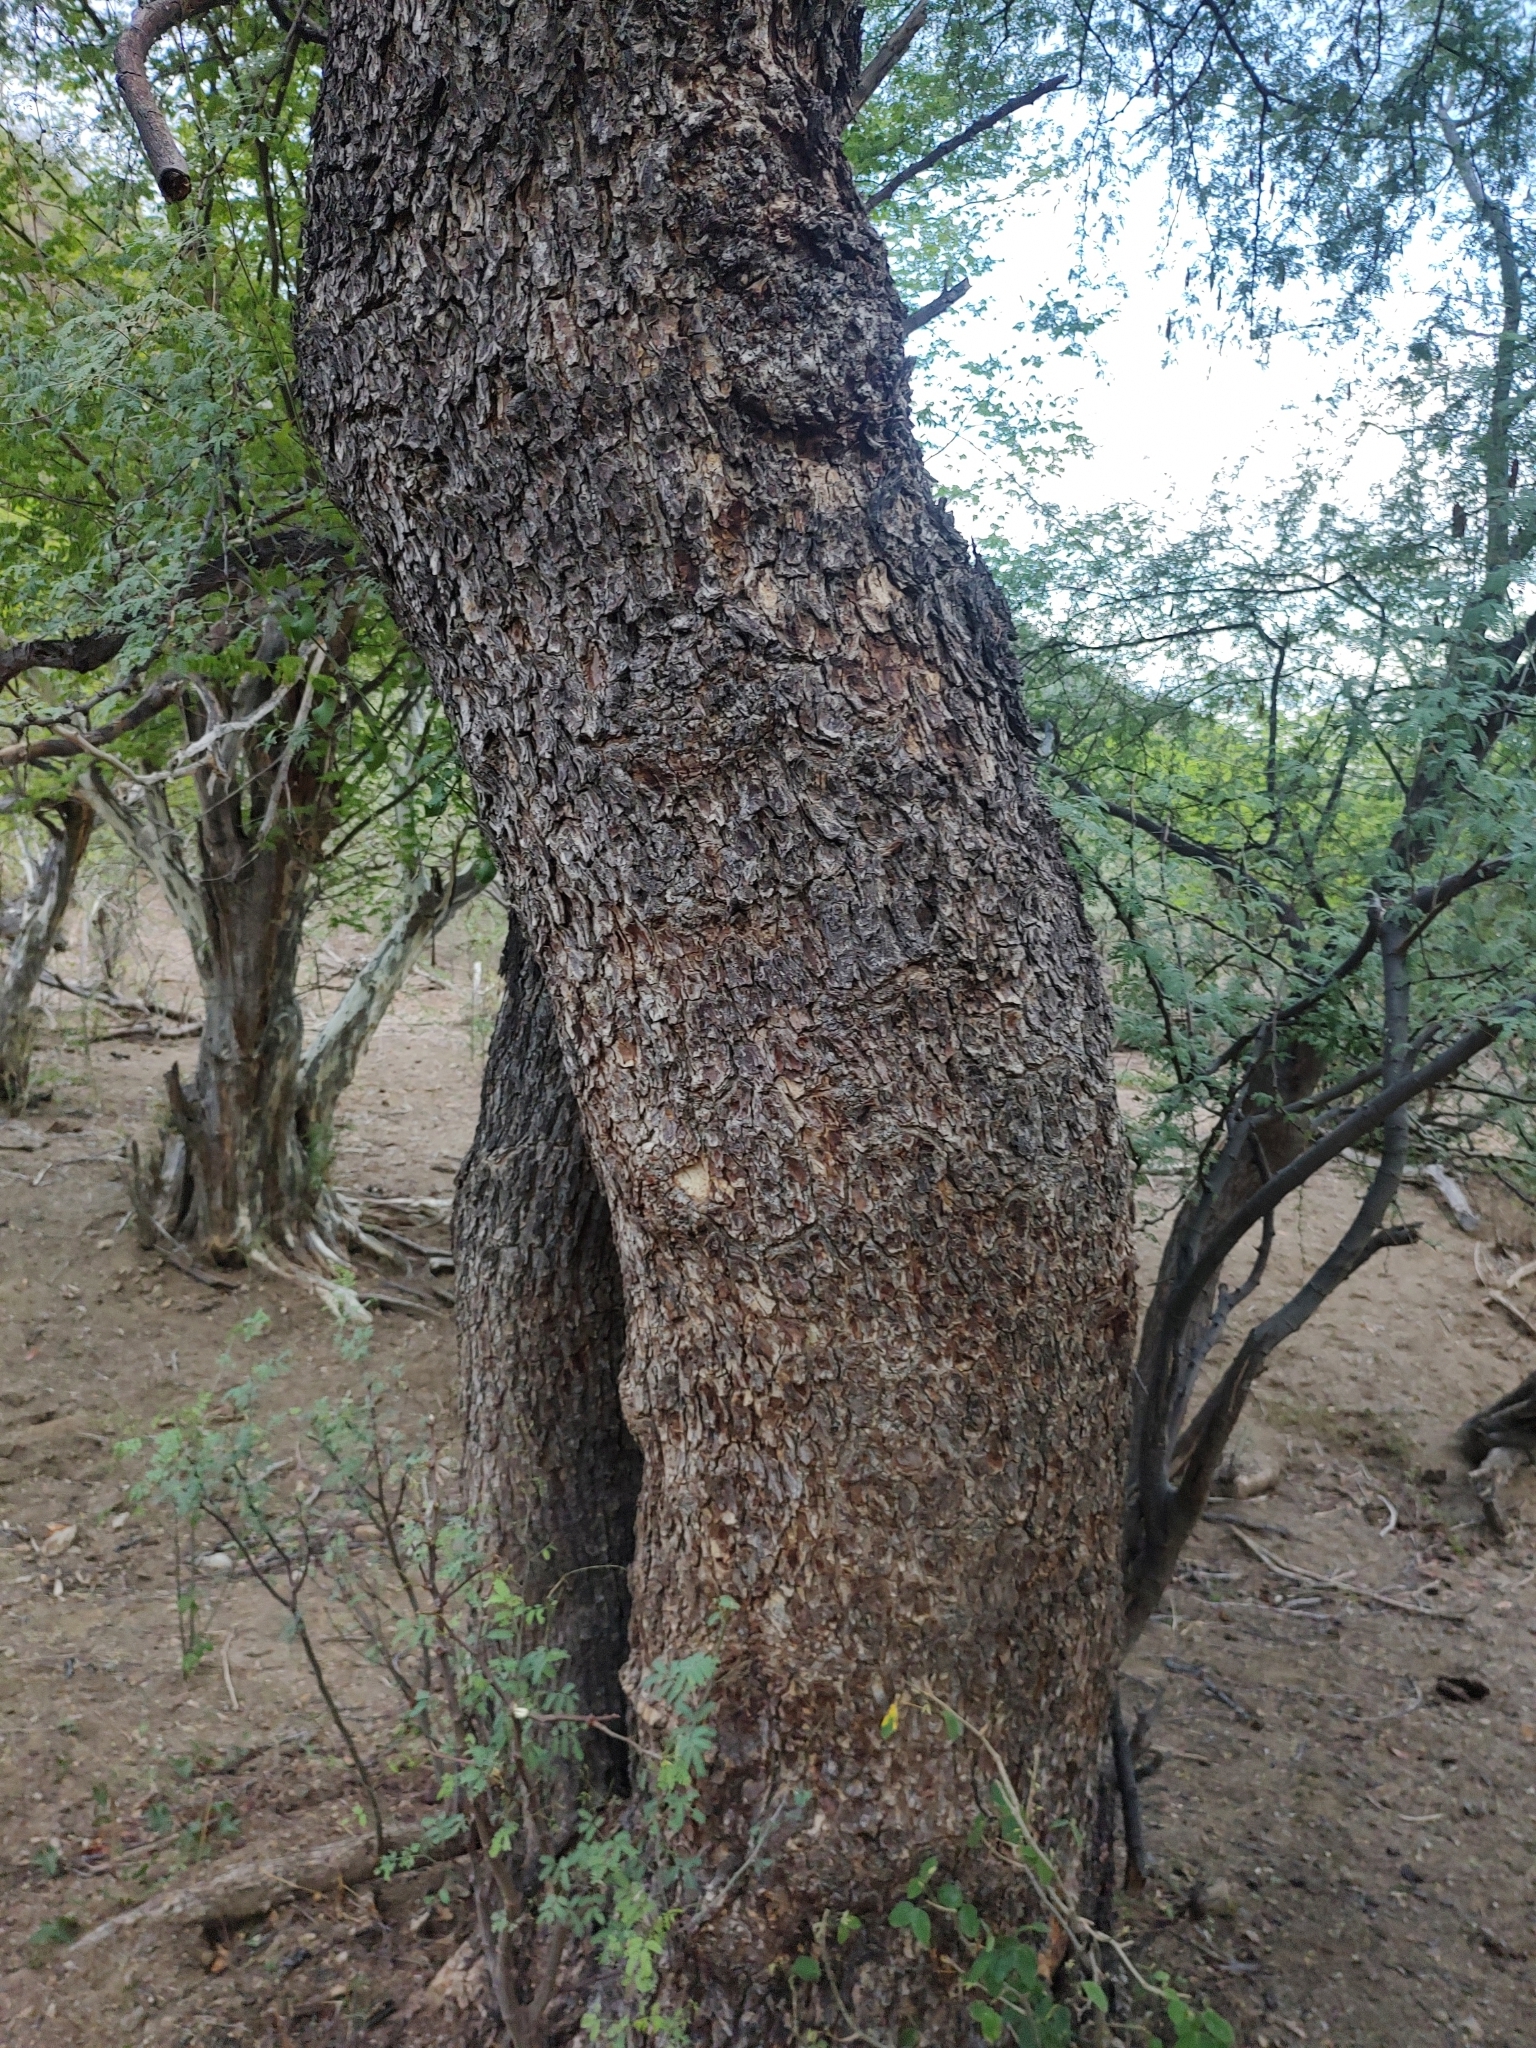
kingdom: Plantae
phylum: Tracheophyta
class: Magnoliopsida
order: Fabales
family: Fabaceae
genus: Havardia
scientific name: Havardia mexicana
